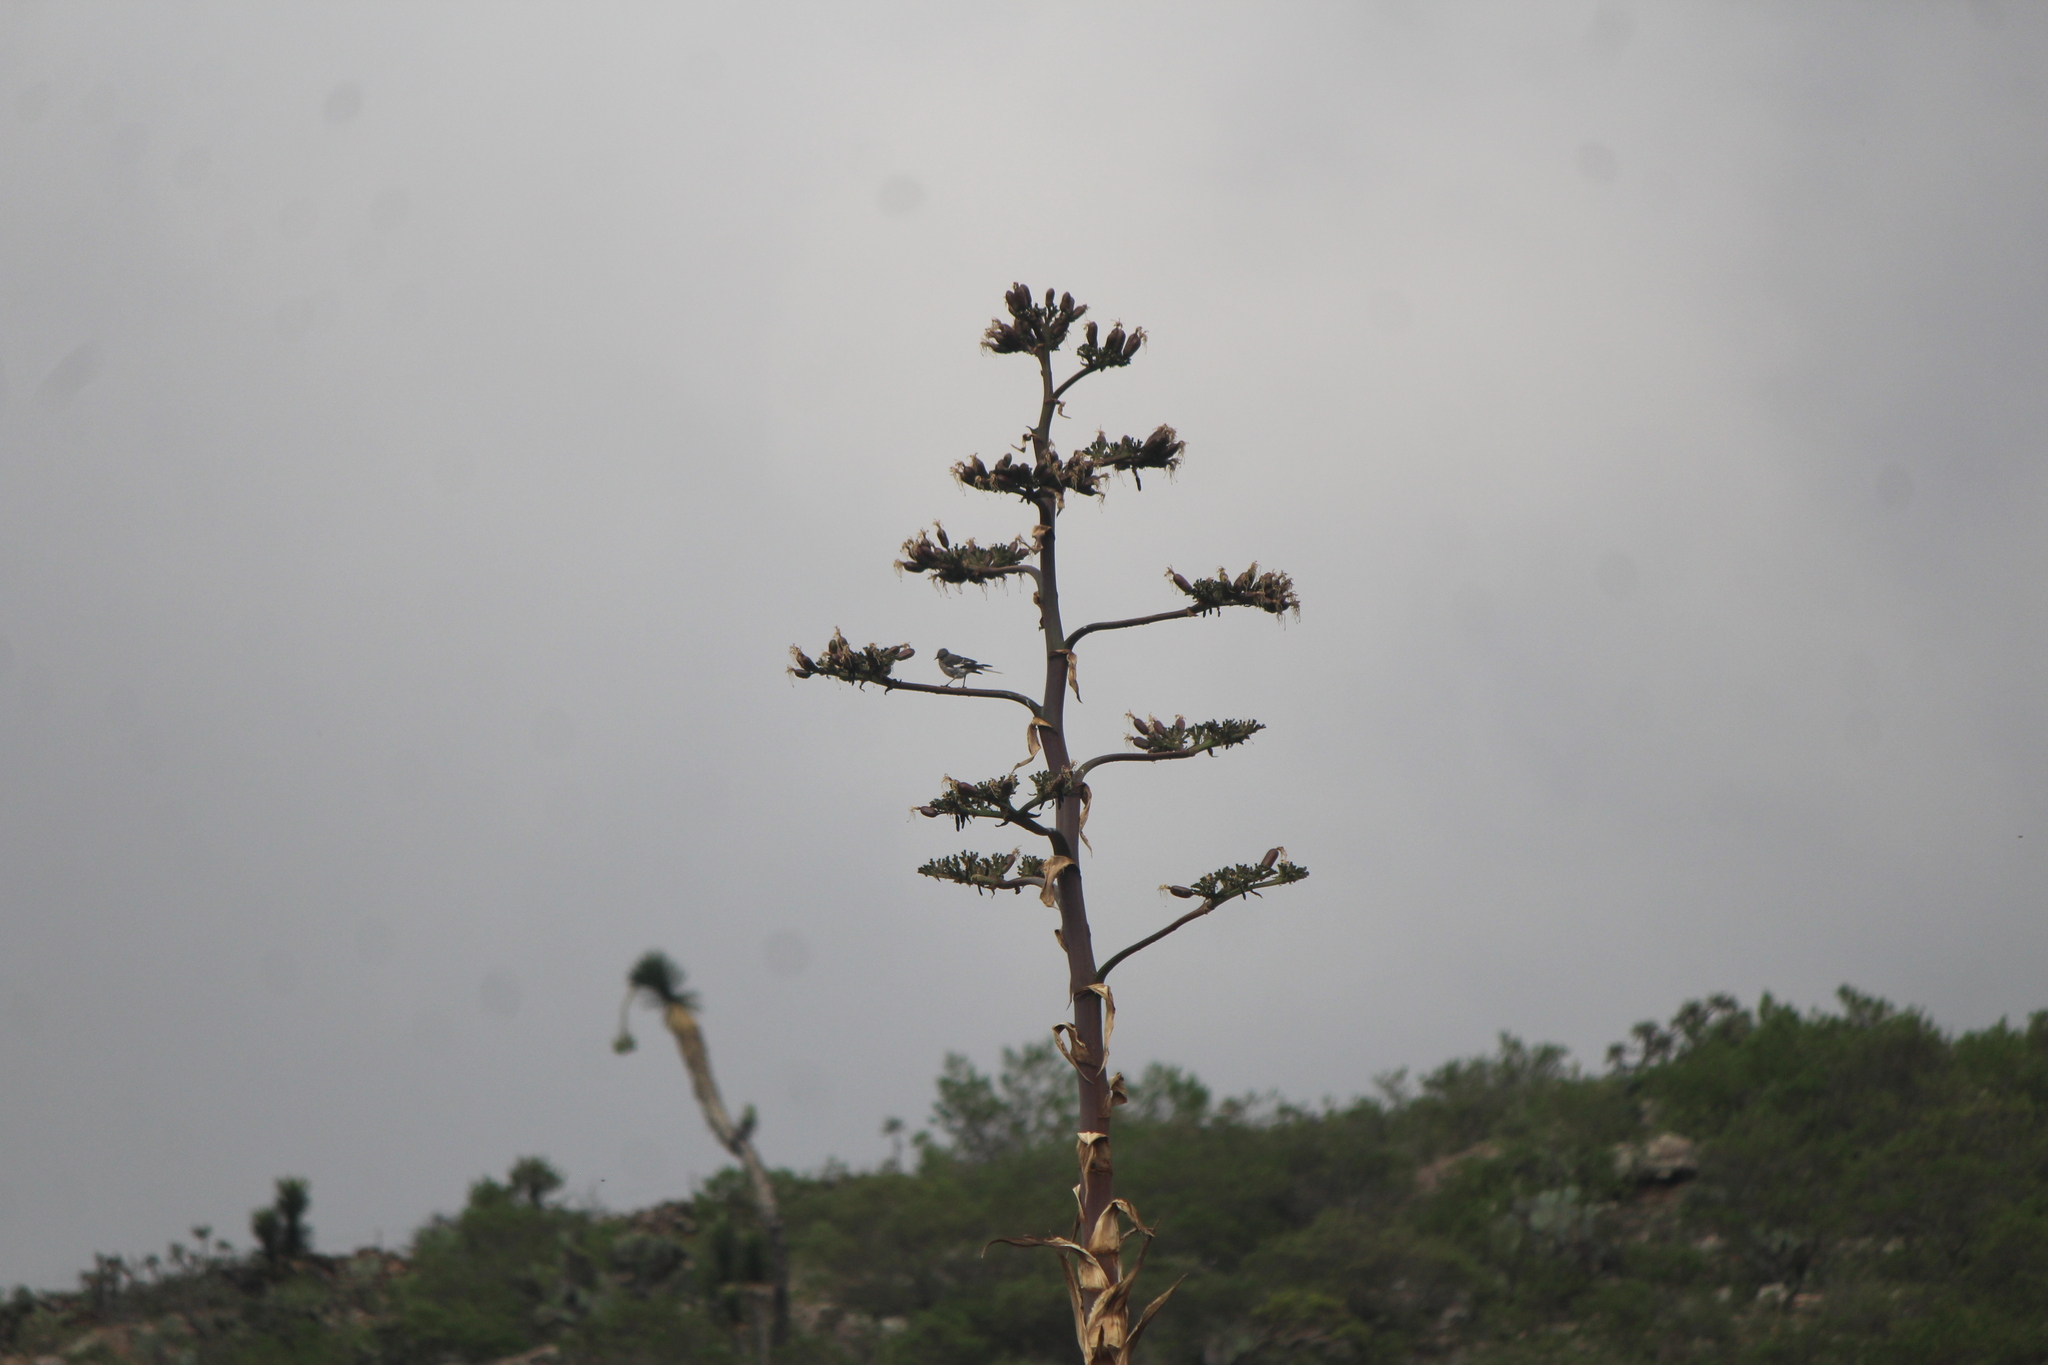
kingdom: Animalia
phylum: Chordata
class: Aves
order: Passeriformes
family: Mimidae
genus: Mimus
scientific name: Mimus polyglottos
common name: Northern mockingbird
